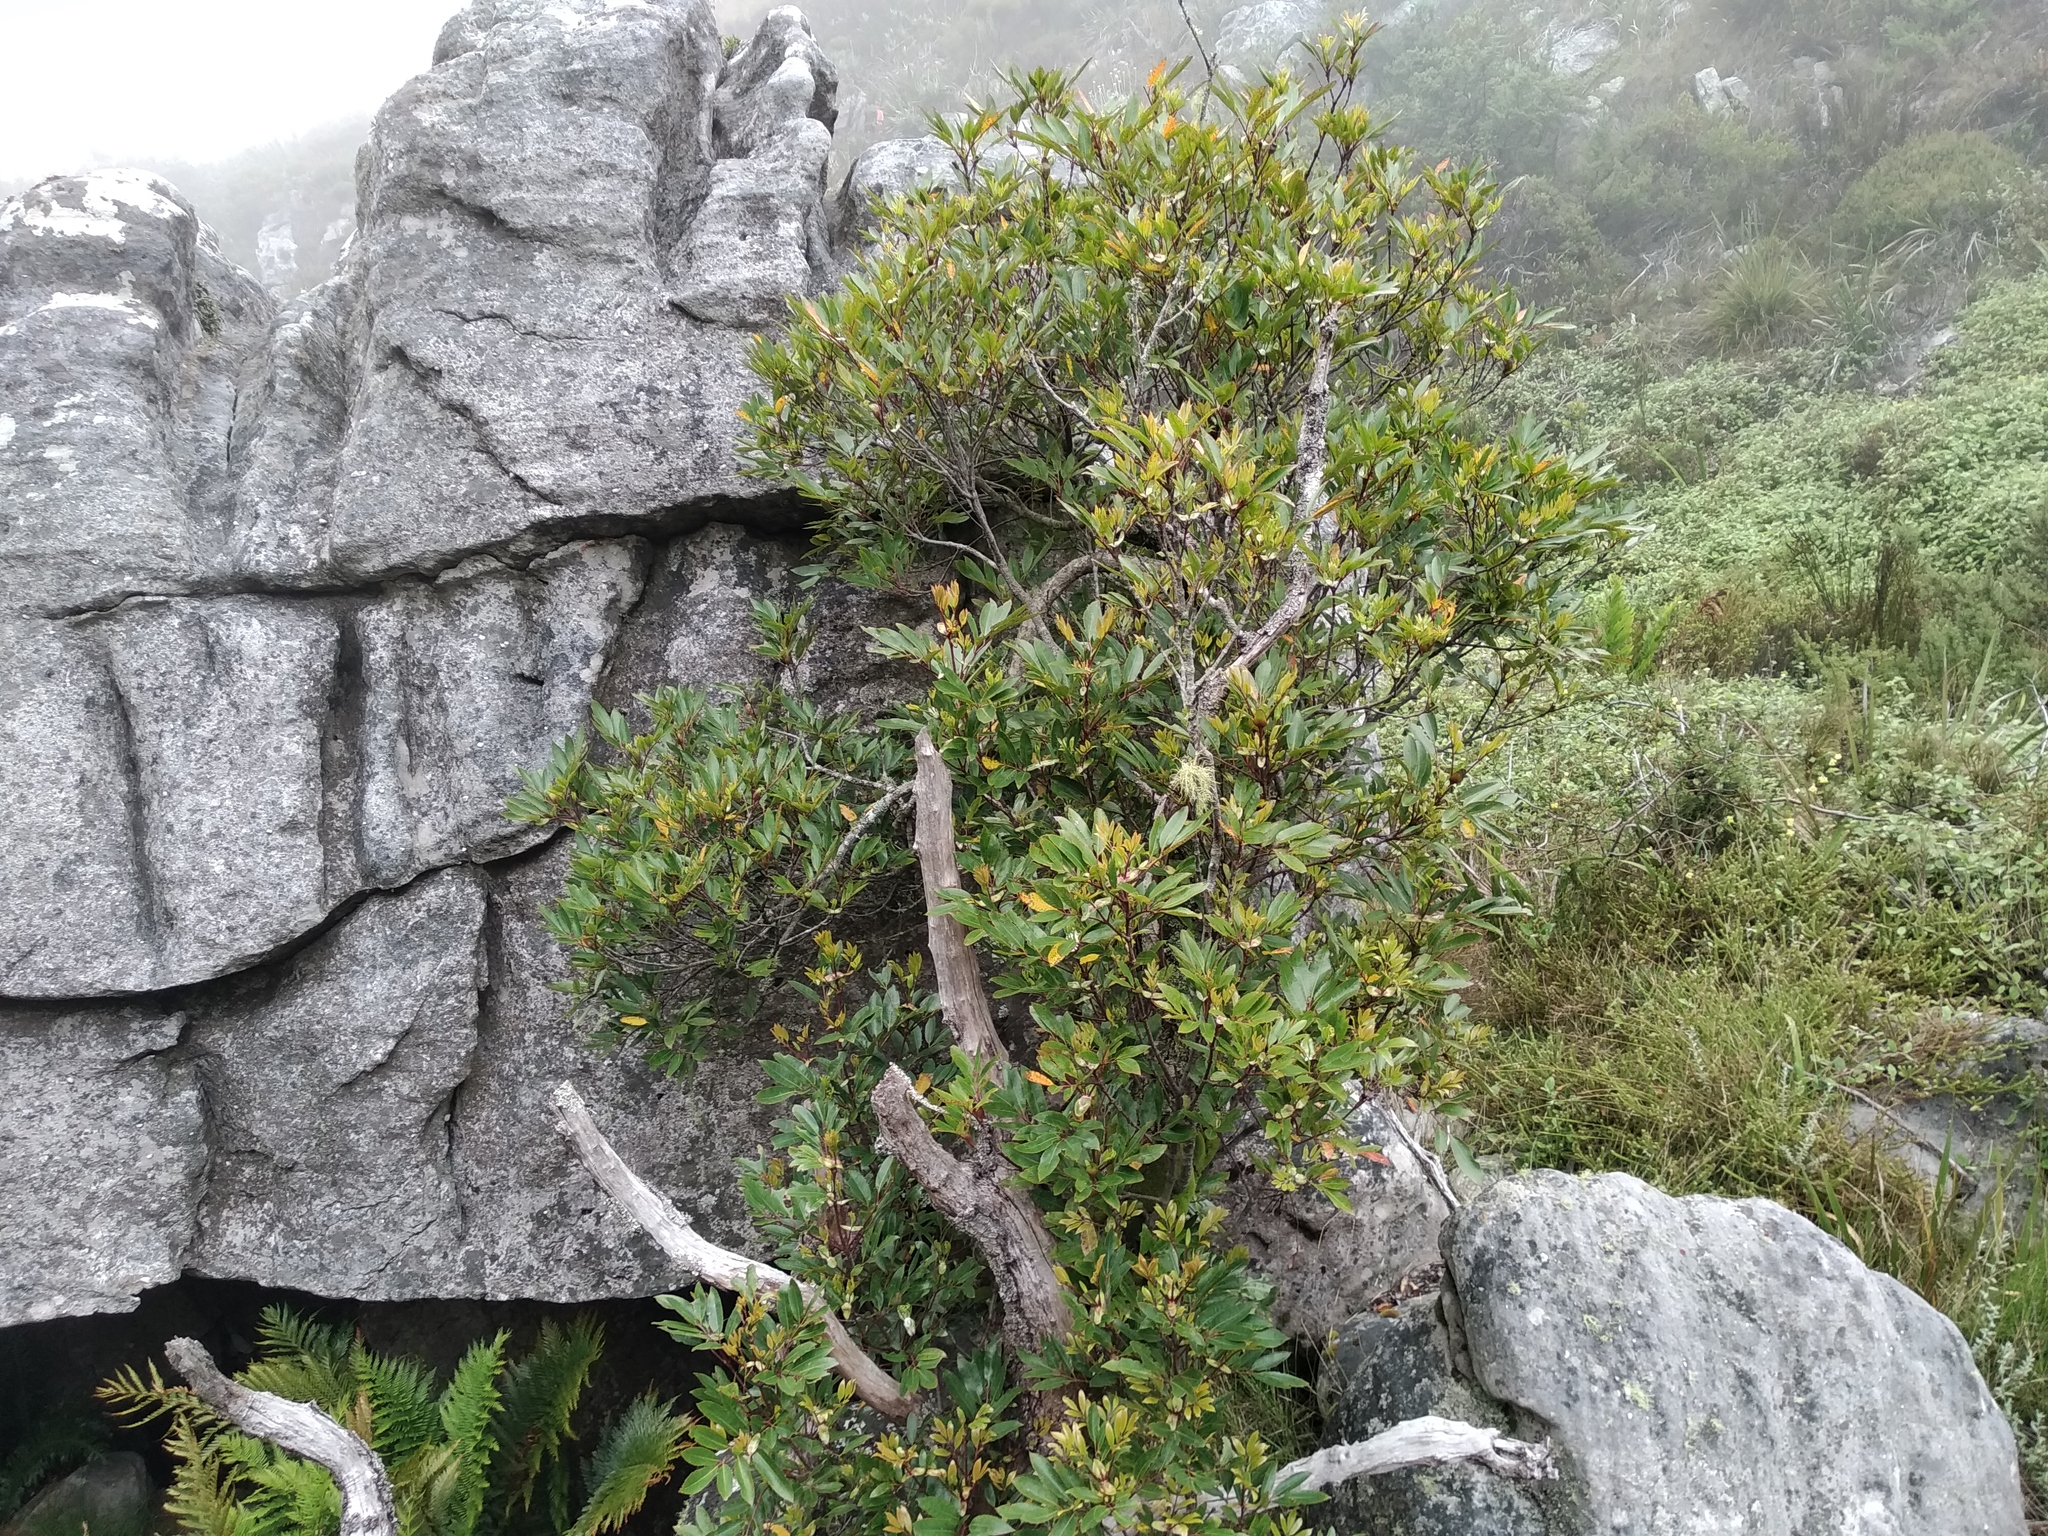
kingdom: Plantae
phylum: Tracheophyta
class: Magnoliopsida
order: Oxalidales
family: Cunoniaceae
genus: Cunonia
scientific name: Cunonia capensis
